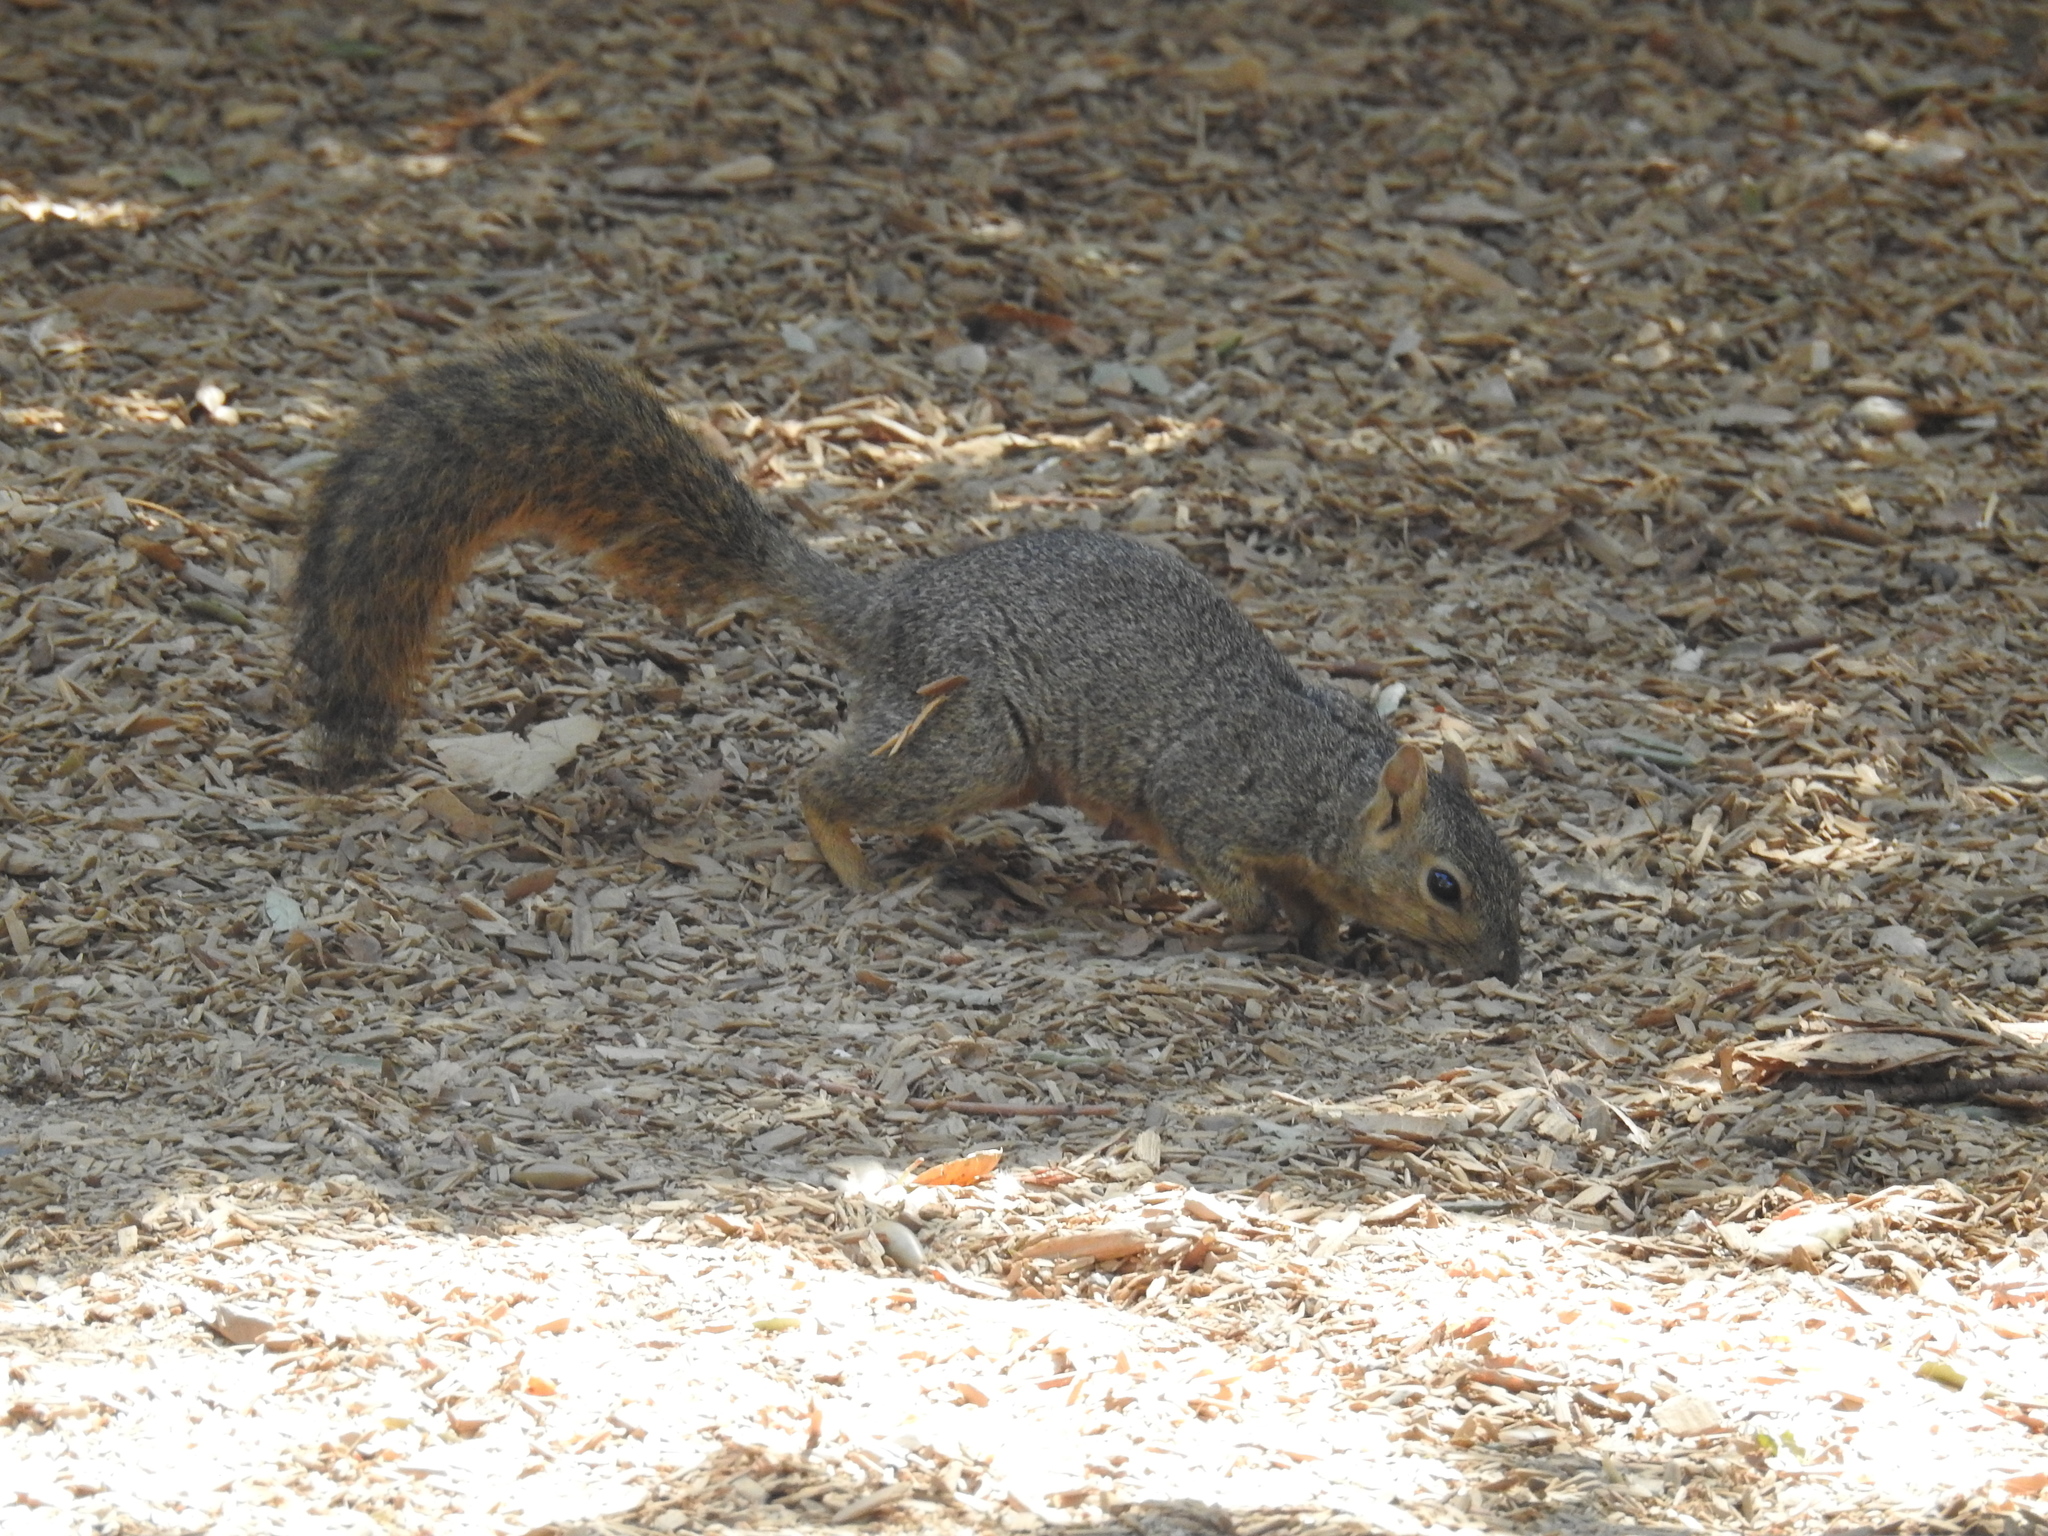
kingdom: Animalia
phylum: Chordata
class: Mammalia
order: Rodentia
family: Sciuridae
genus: Sciurus
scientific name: Sciurus niger
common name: Fox squirrel
